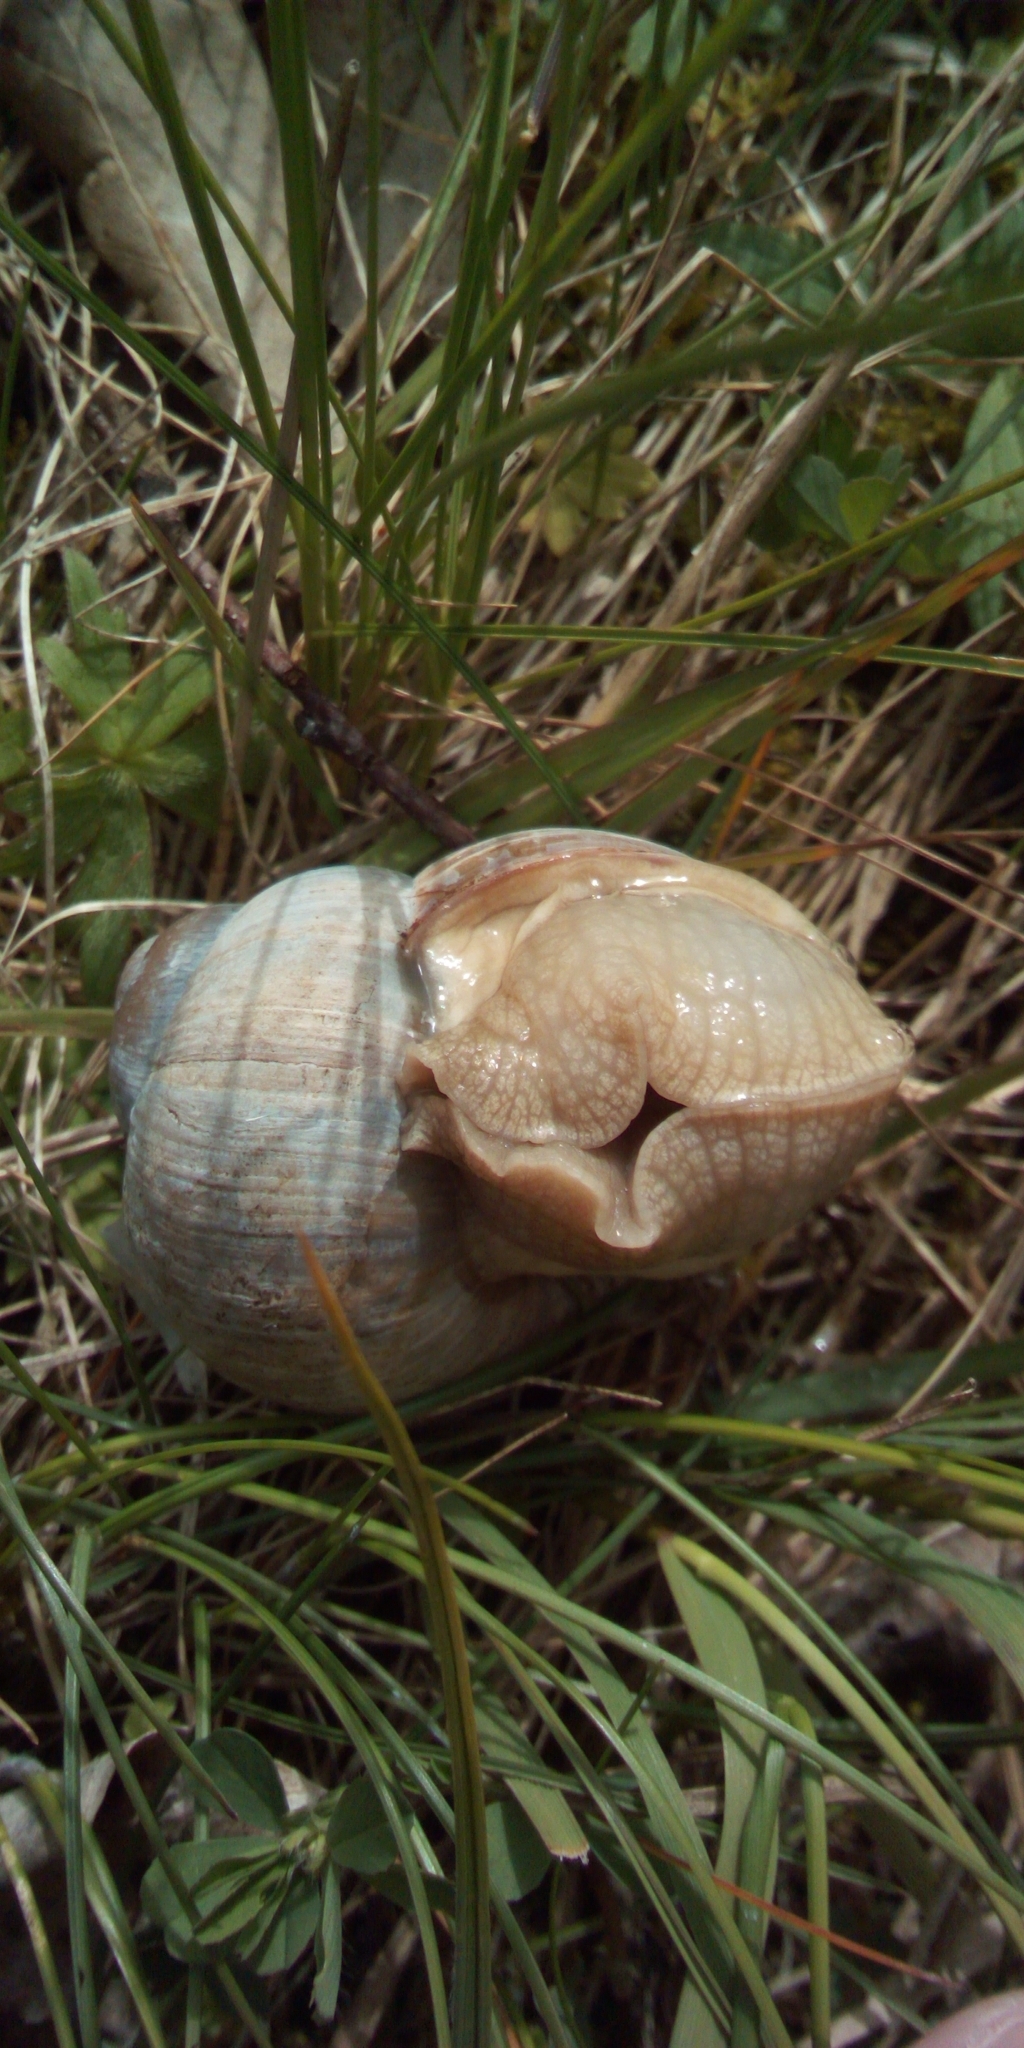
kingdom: Animalia
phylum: Mollusca
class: Gastropoda
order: Stylommatophora
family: Helicidae
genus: Helix
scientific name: Helix pomatia
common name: Roman snail
